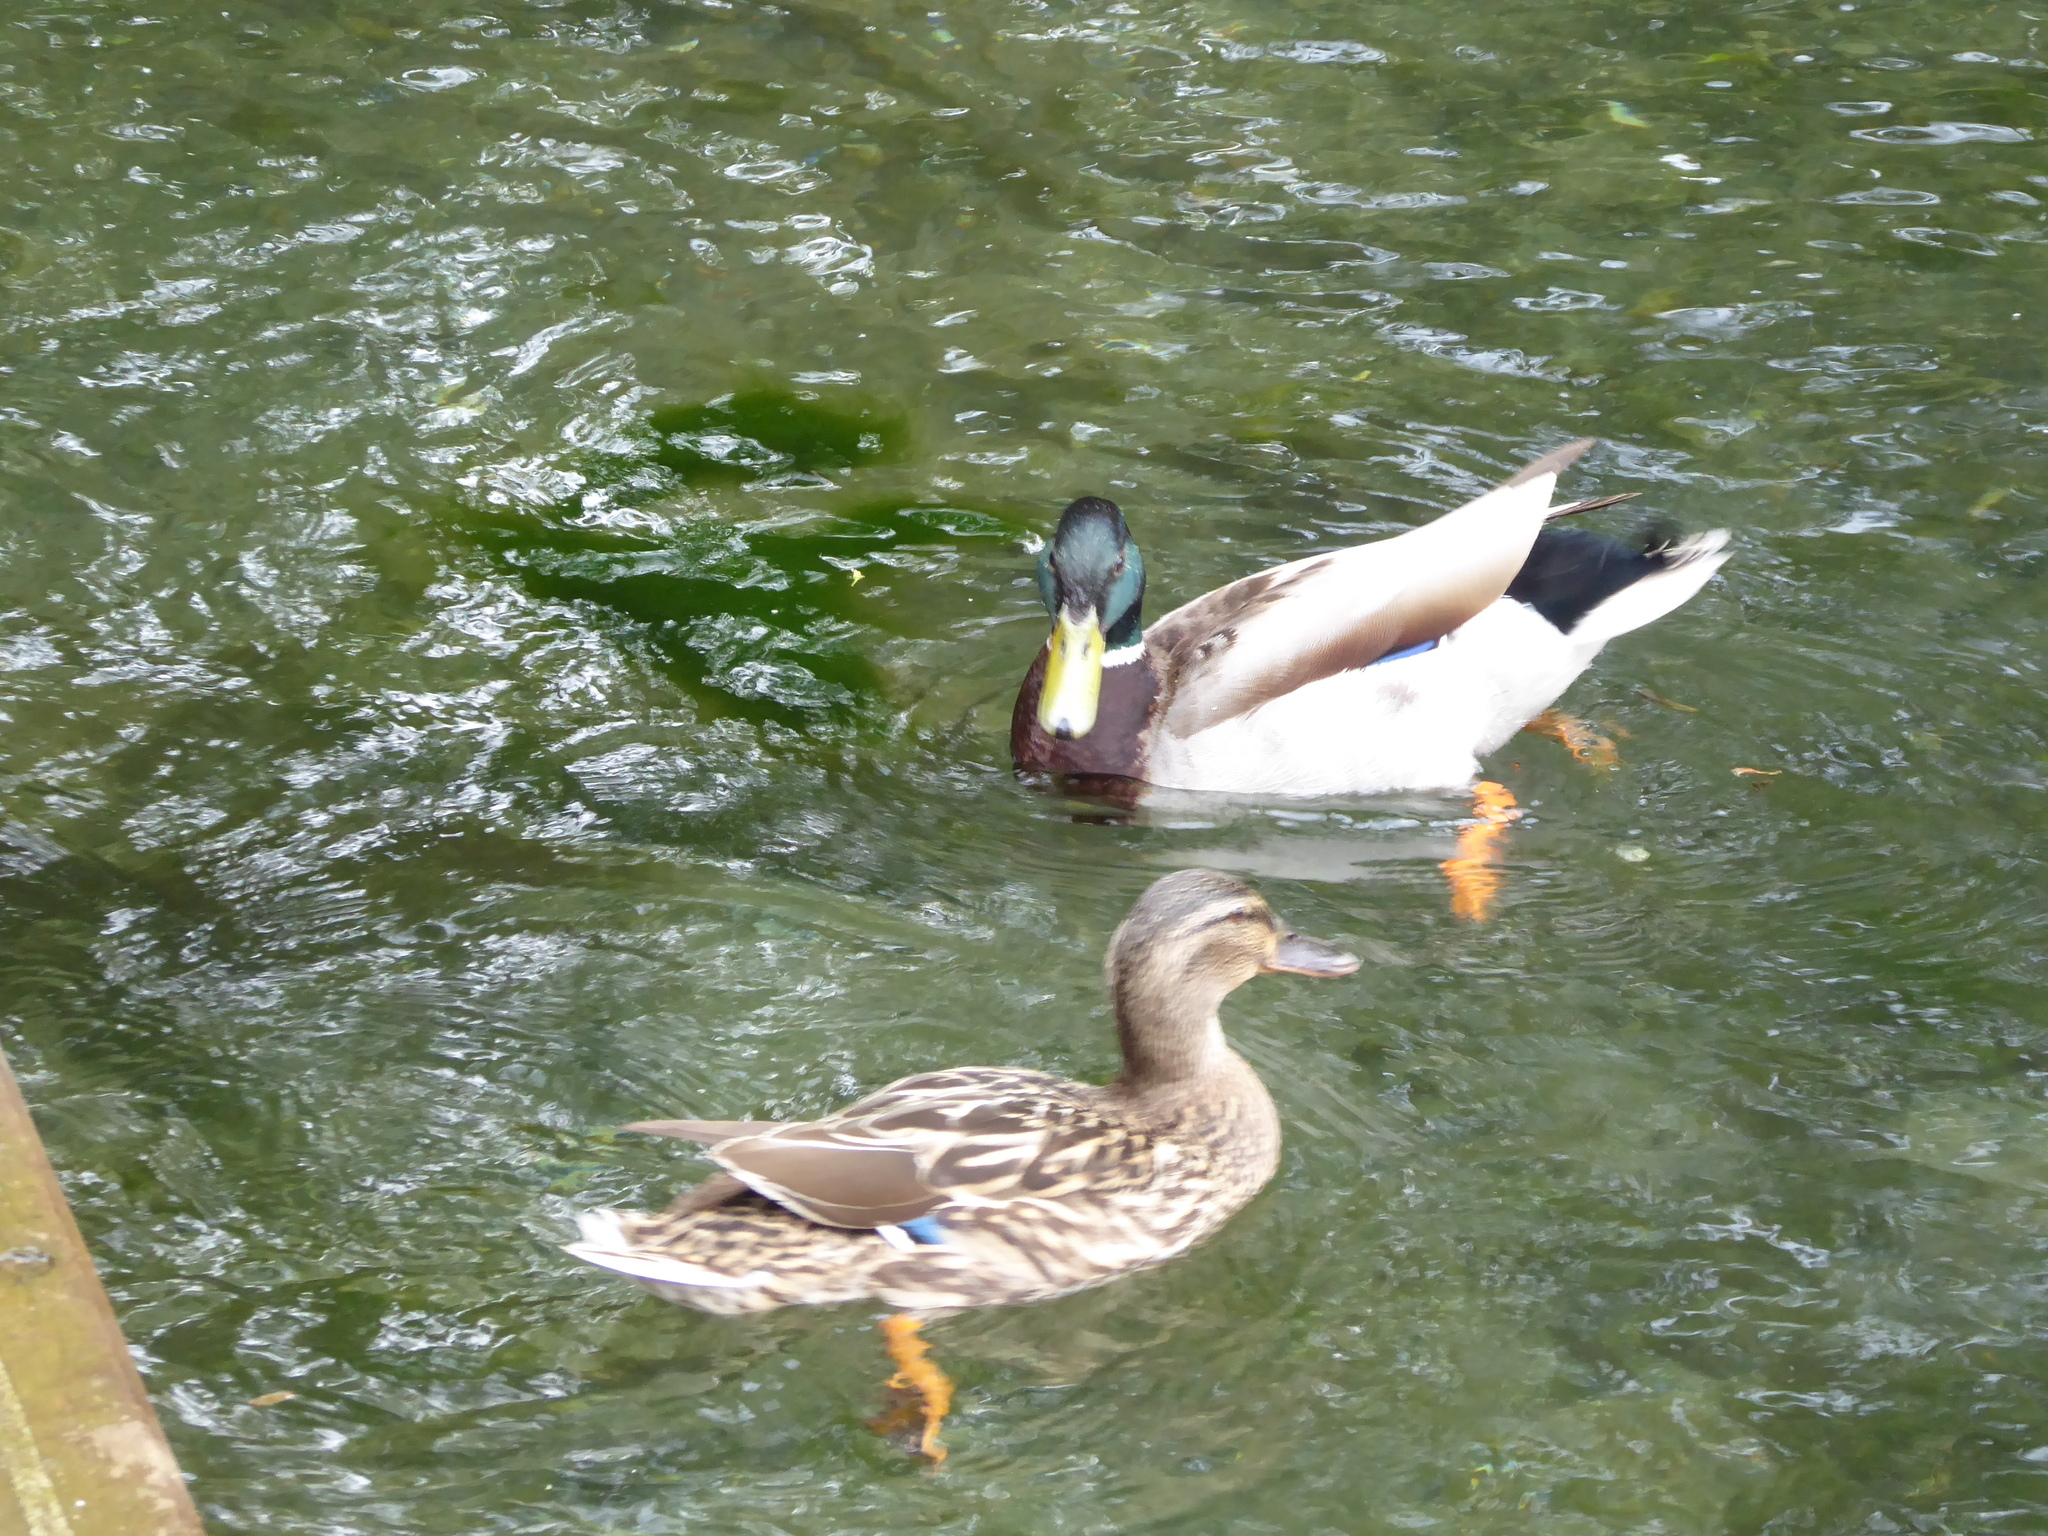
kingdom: Animalia
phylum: Chordata
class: Aves
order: Anseriformes
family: Anatidae
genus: Anas
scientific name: Anas platyrhynchos
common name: Mallard
